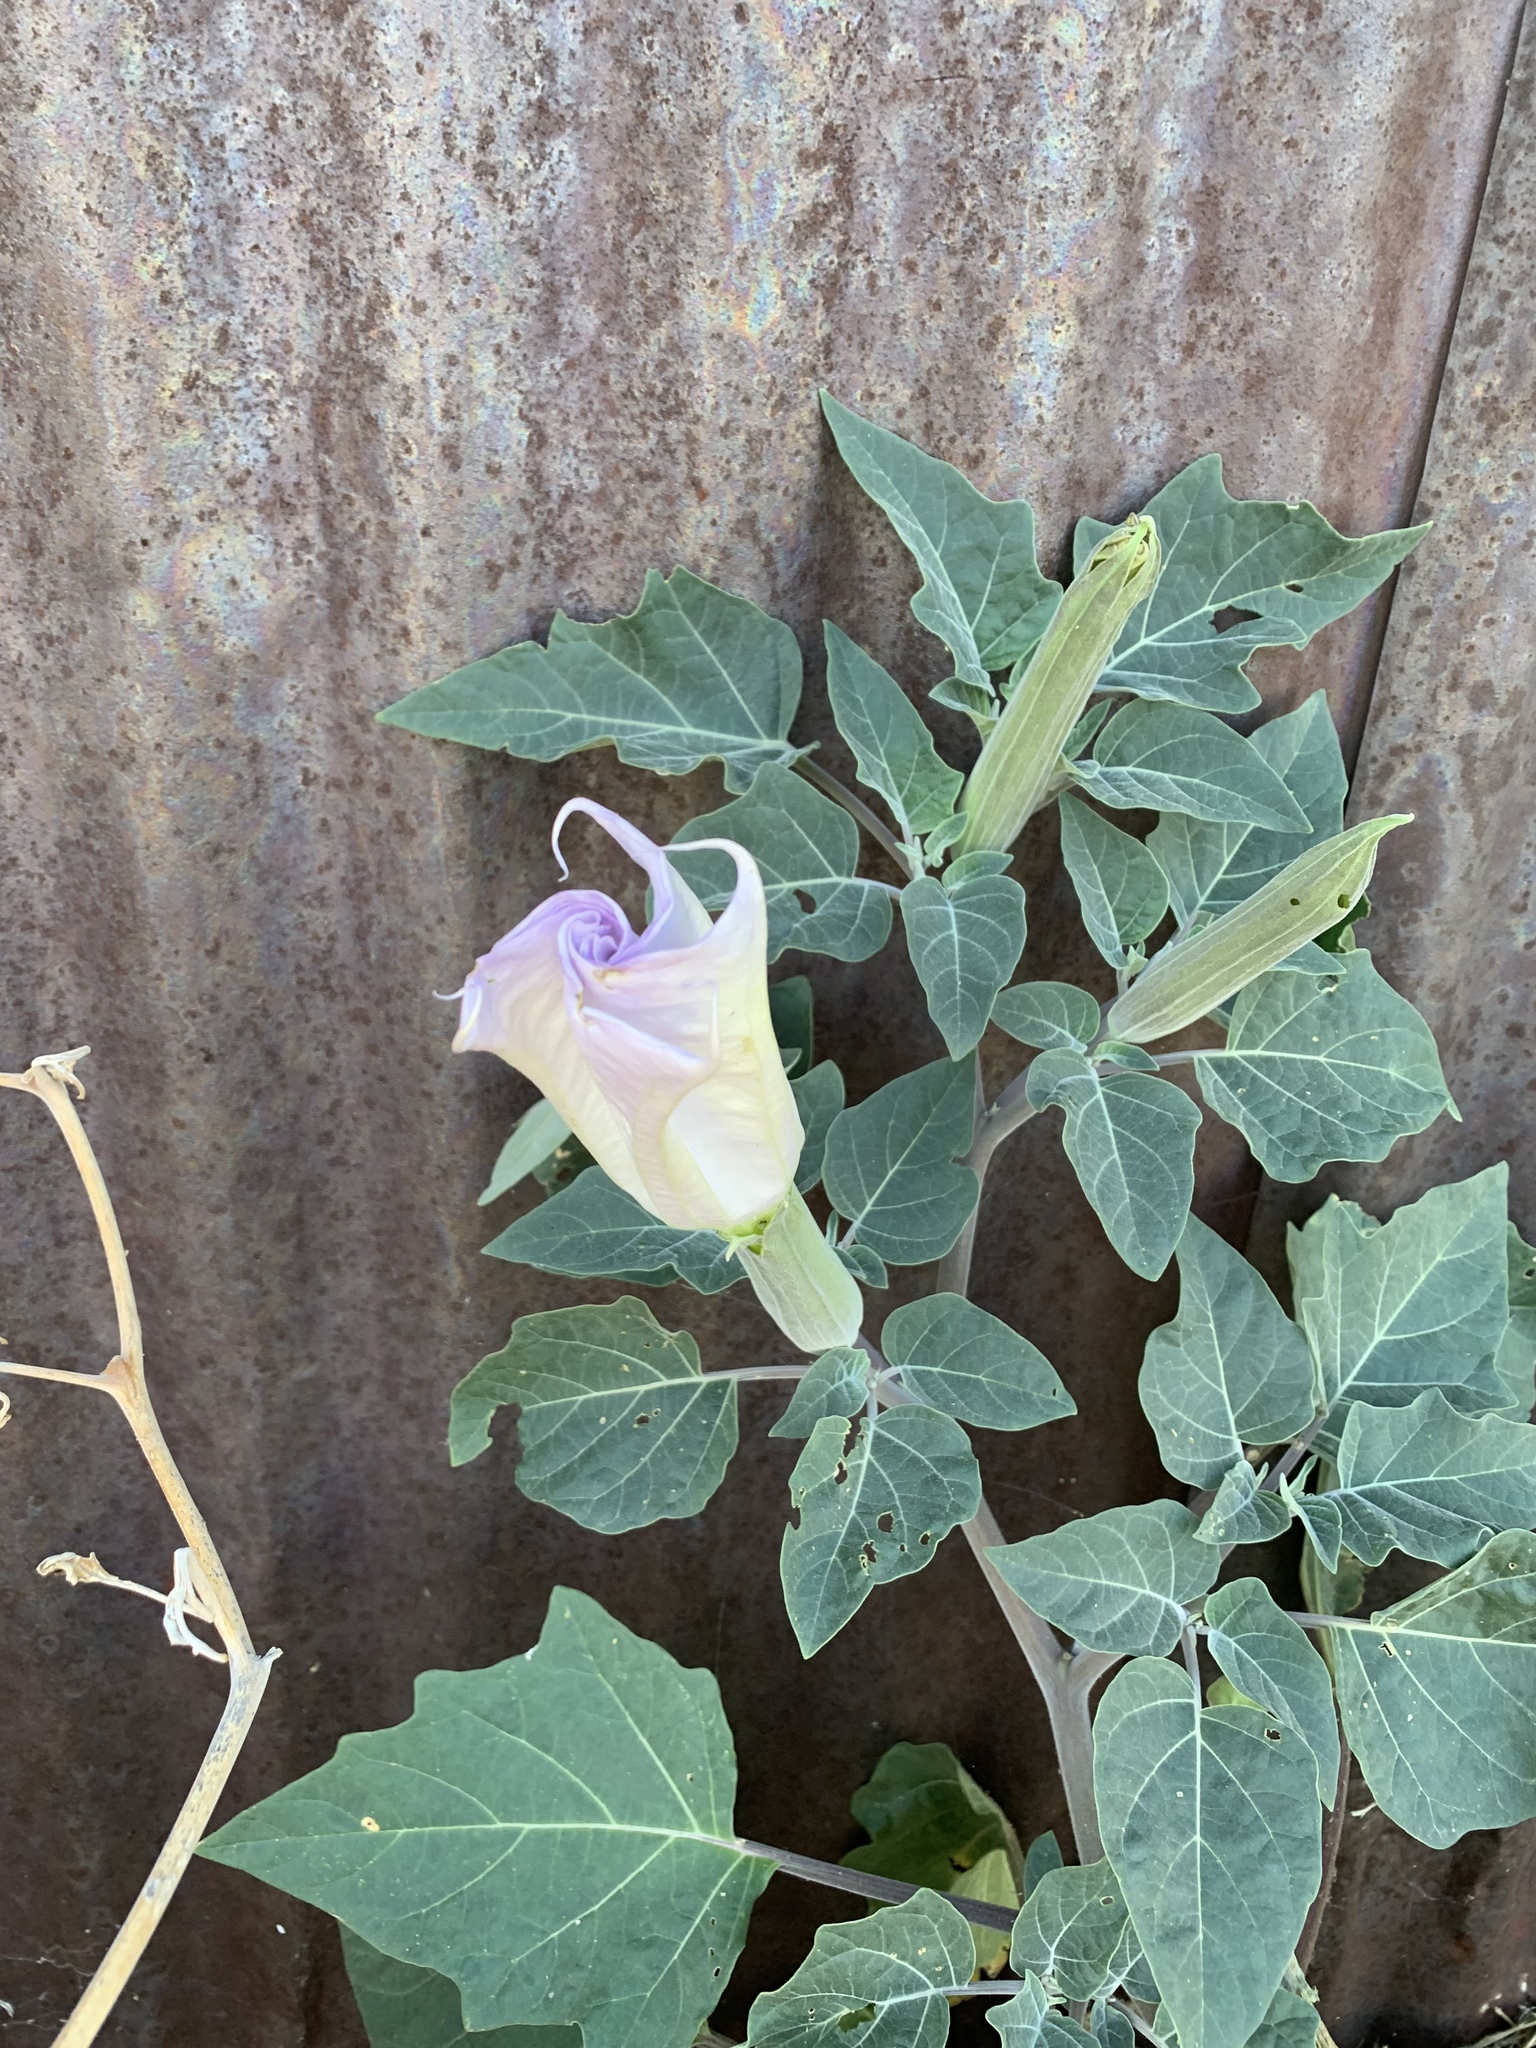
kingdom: Plantae
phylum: Tracheophyta
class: Magnoliopsida
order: Solanales
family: Solanaceae
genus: Datura
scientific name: Datura wrightii
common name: Sacred thorn-apple
